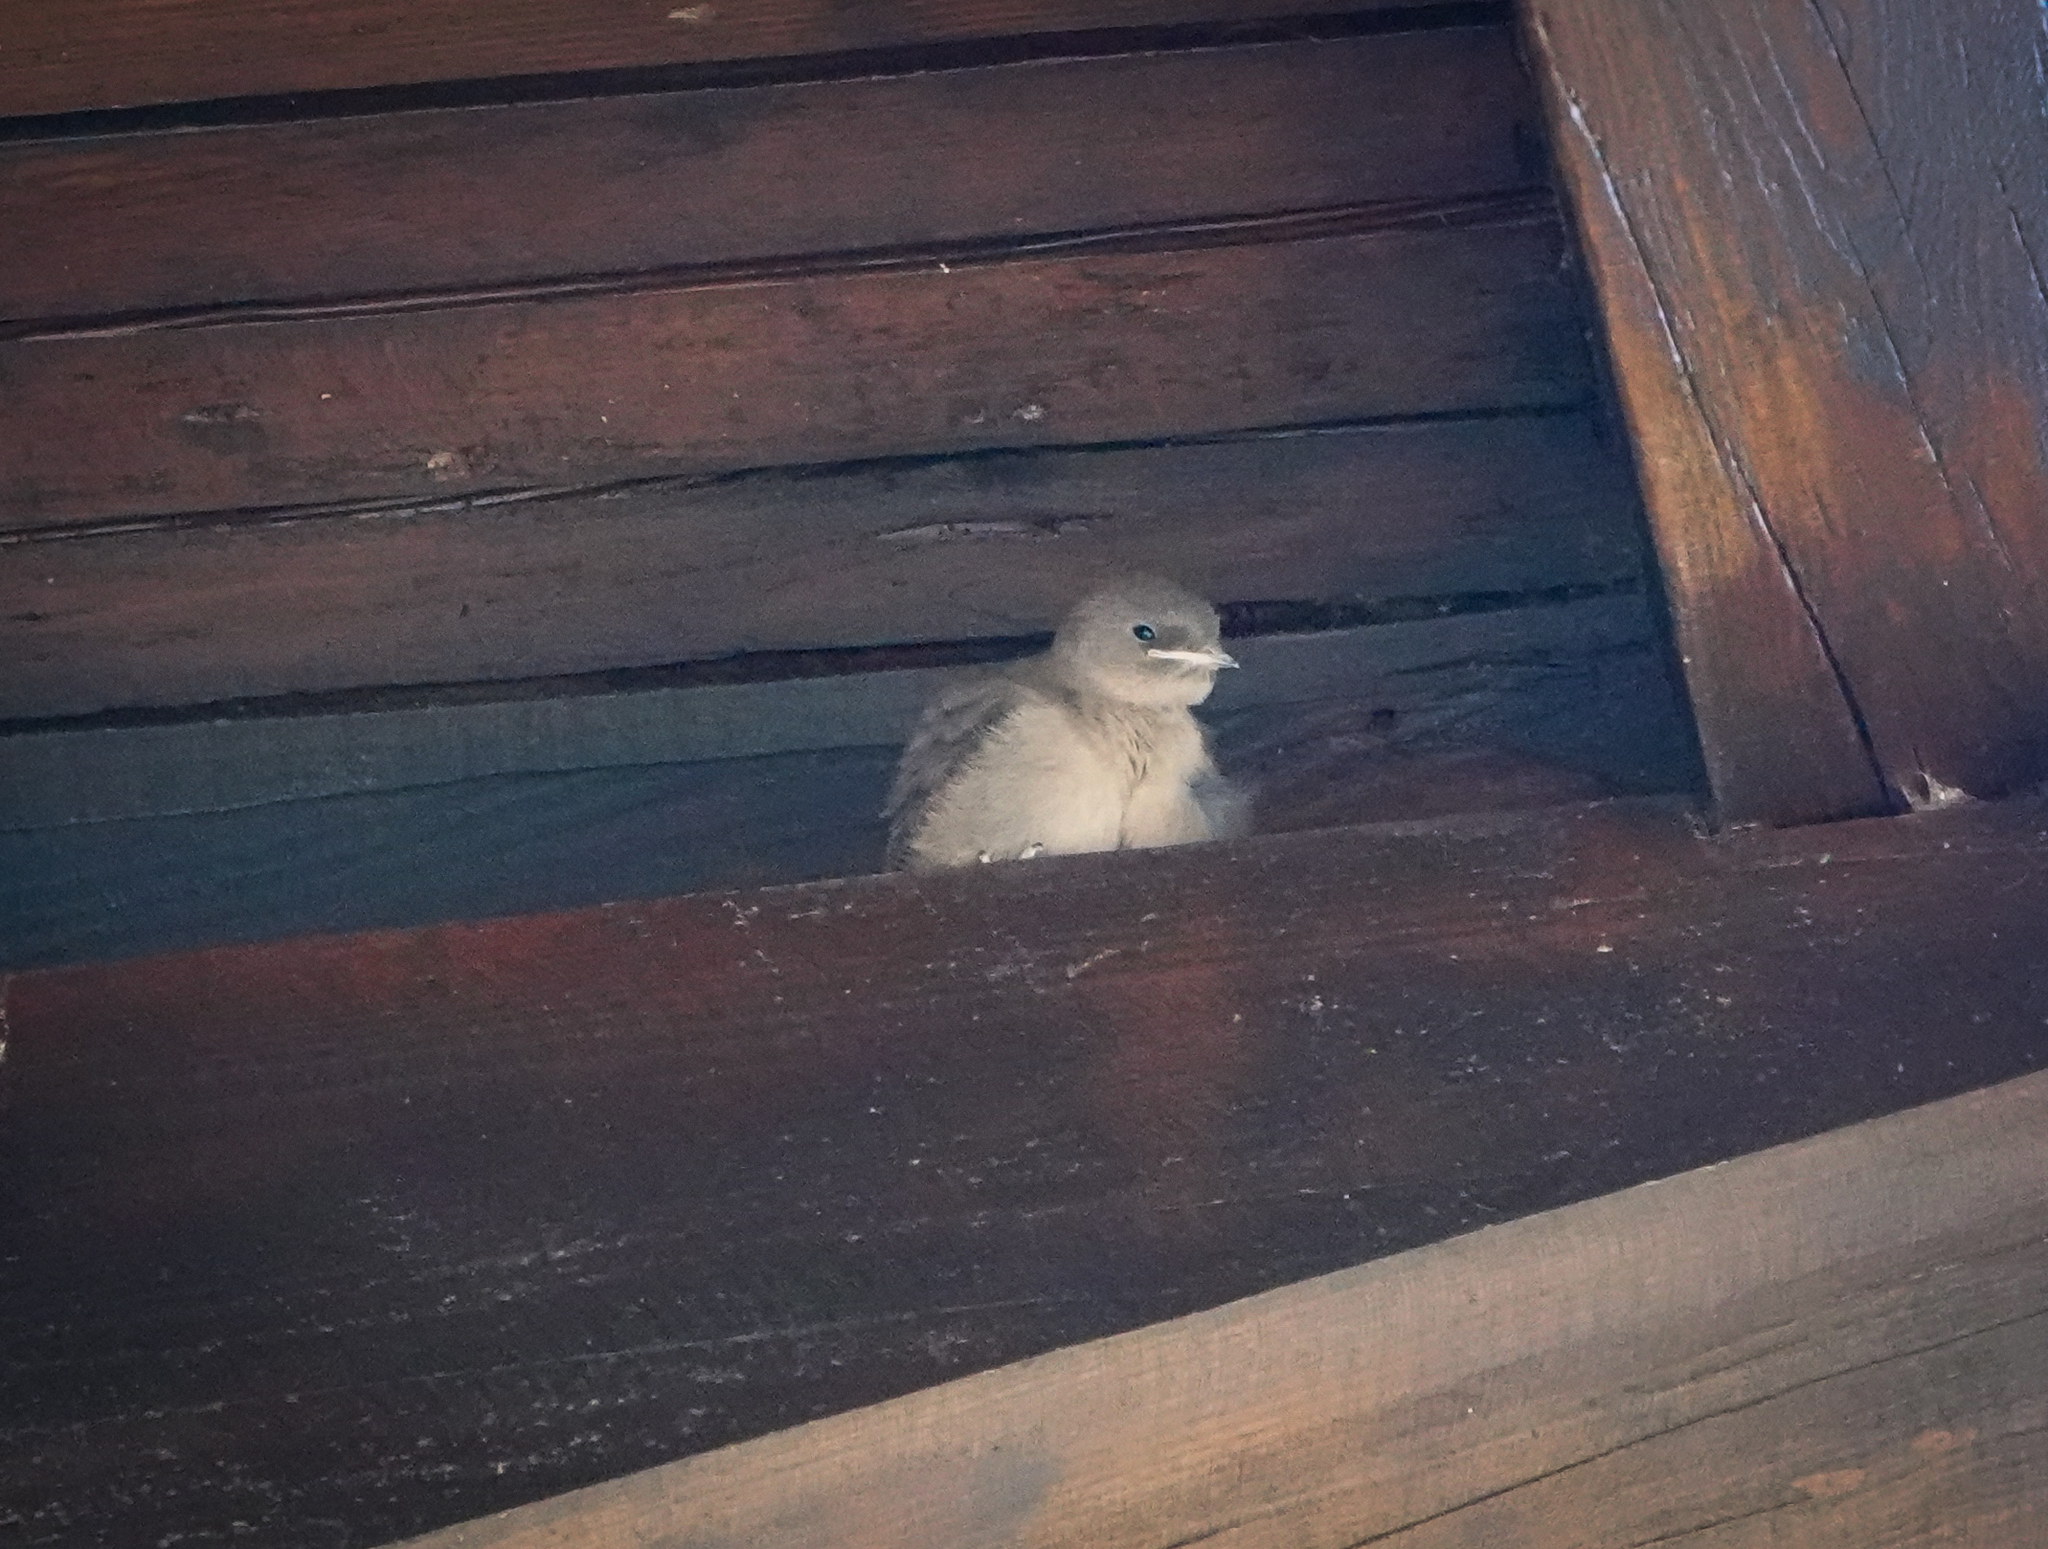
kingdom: Animalia
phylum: Chordata
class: Aves
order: Passeriformes
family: Hirundinidae
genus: Ptyonoprogne
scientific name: Ptyonoprogne rupestris
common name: Eurasian crag martin
